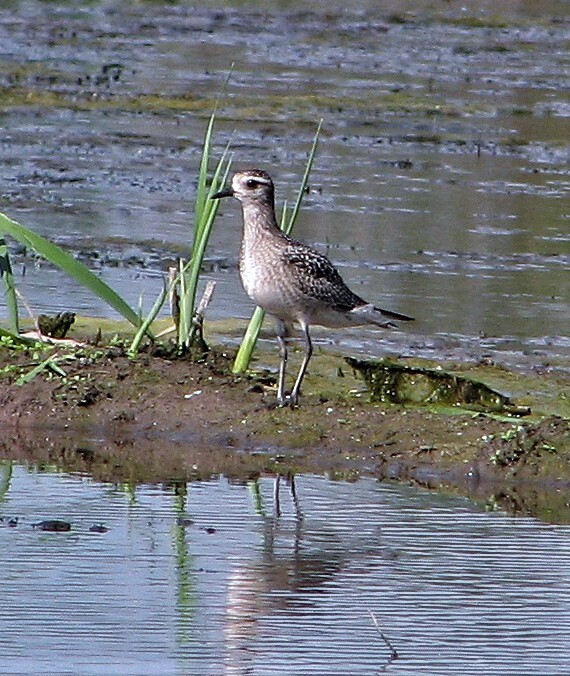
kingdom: Animalia
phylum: Chordata
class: Aves
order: Charadriiformes
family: Charadriidae
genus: Pluvialis
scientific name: Pluvialis dominica
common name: American golden plover
